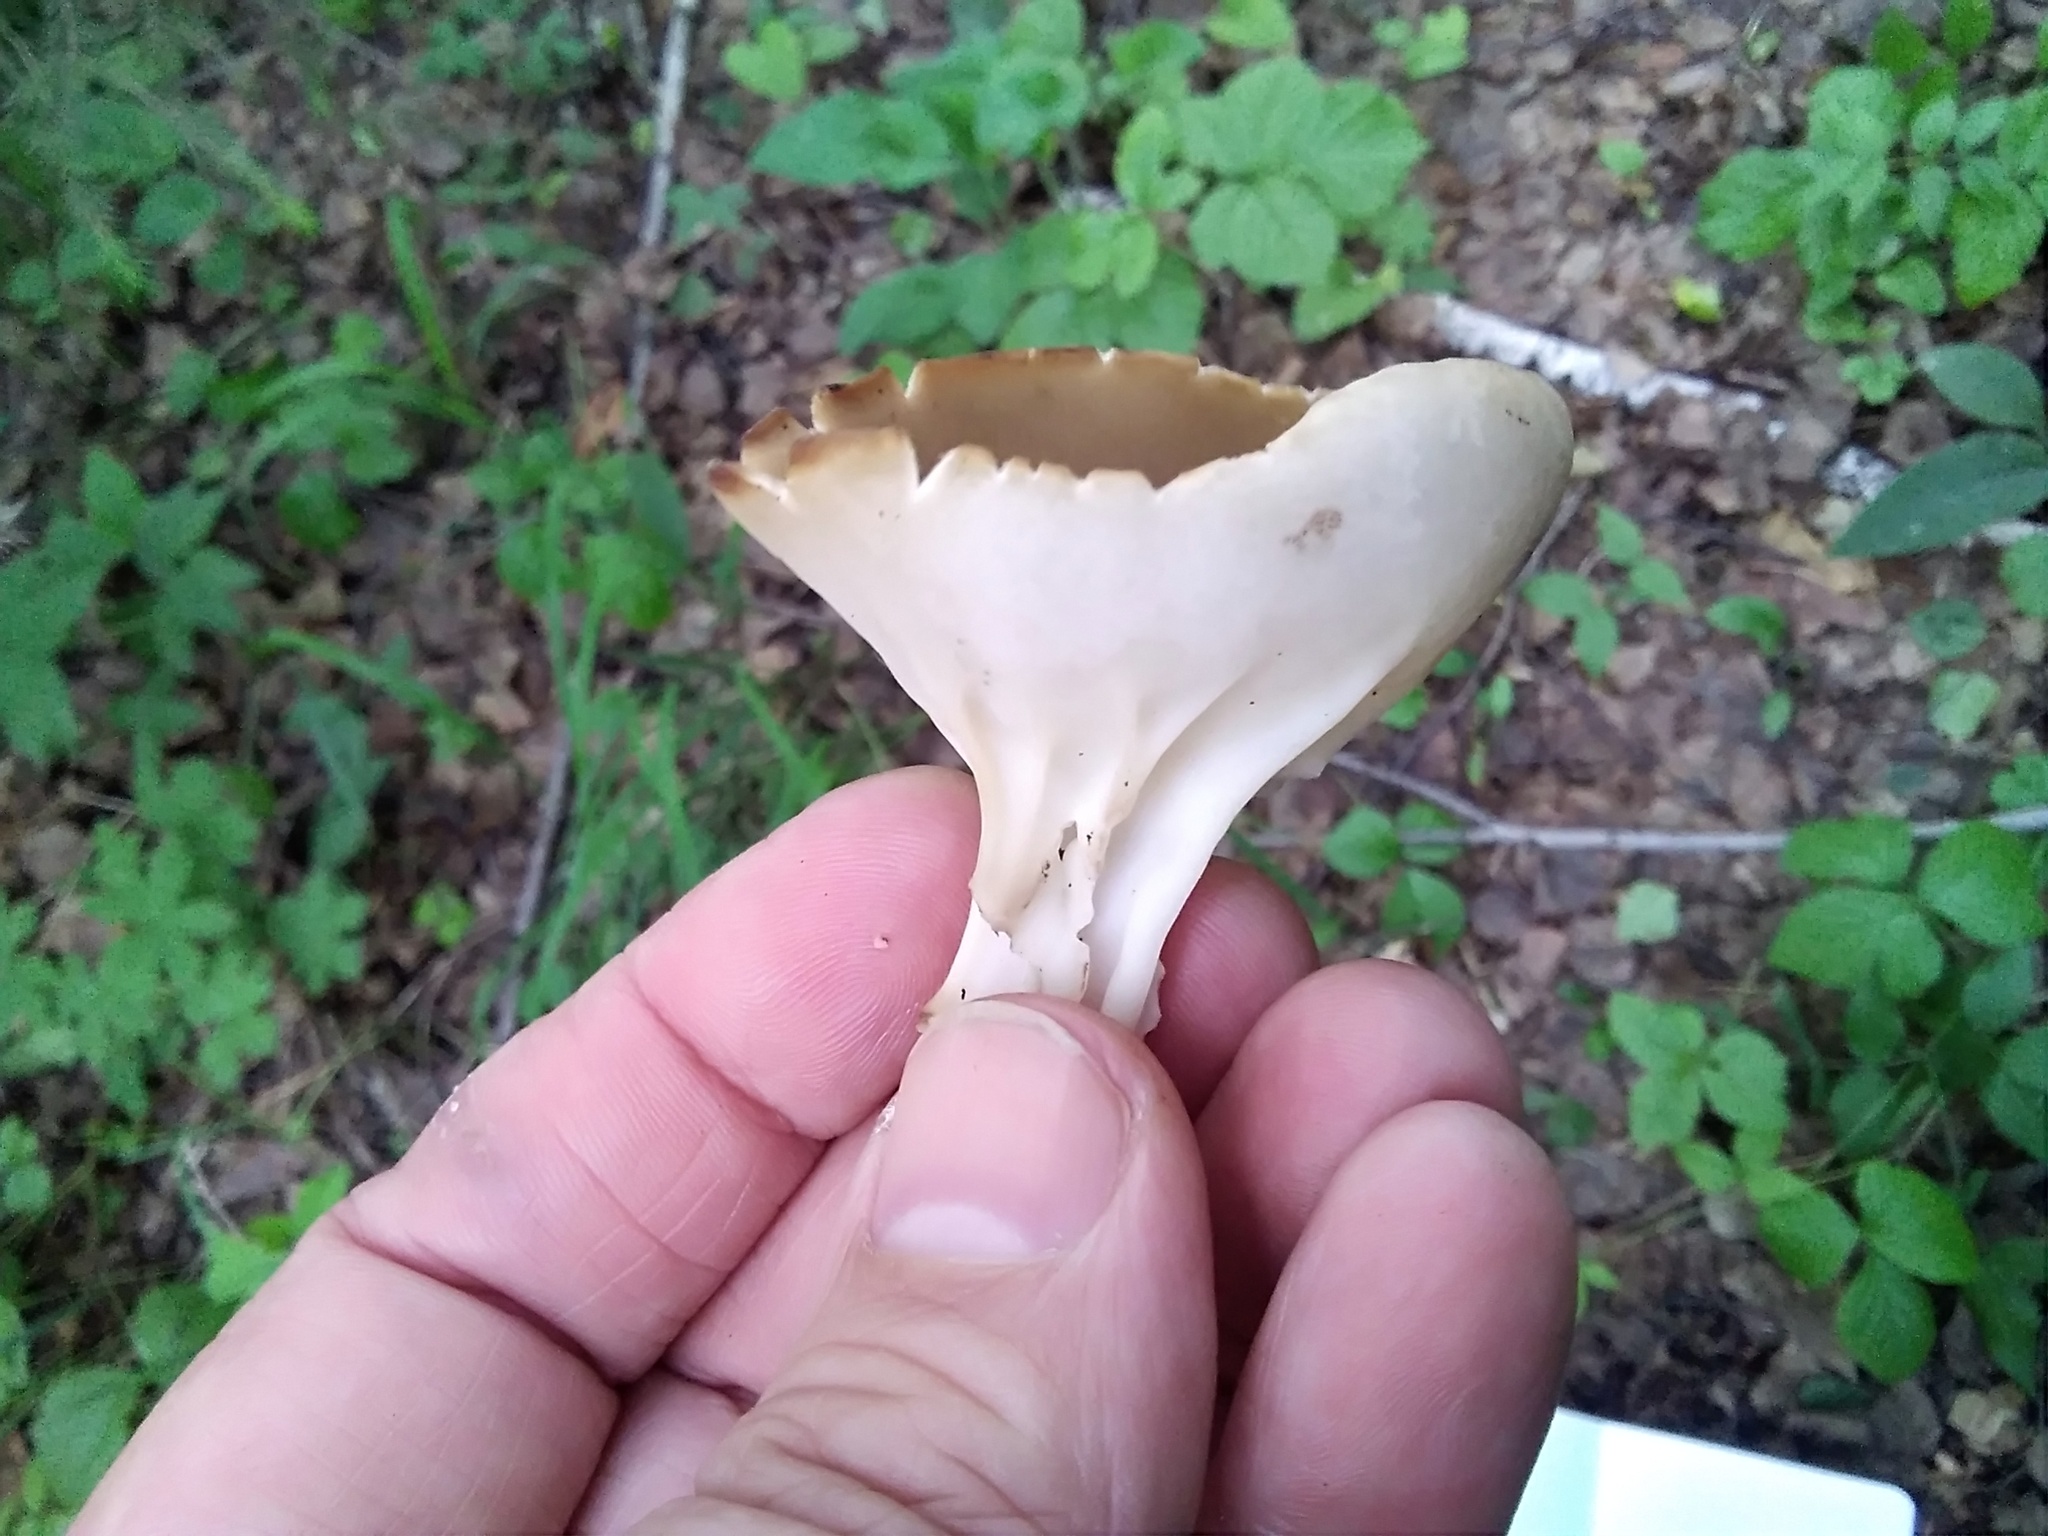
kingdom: Fungi
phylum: Ascomycota
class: Pezizomycetes
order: Pezizales
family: Helvellaceae
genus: Helvella
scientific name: Helvella acetabulum
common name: Vinegar cup
